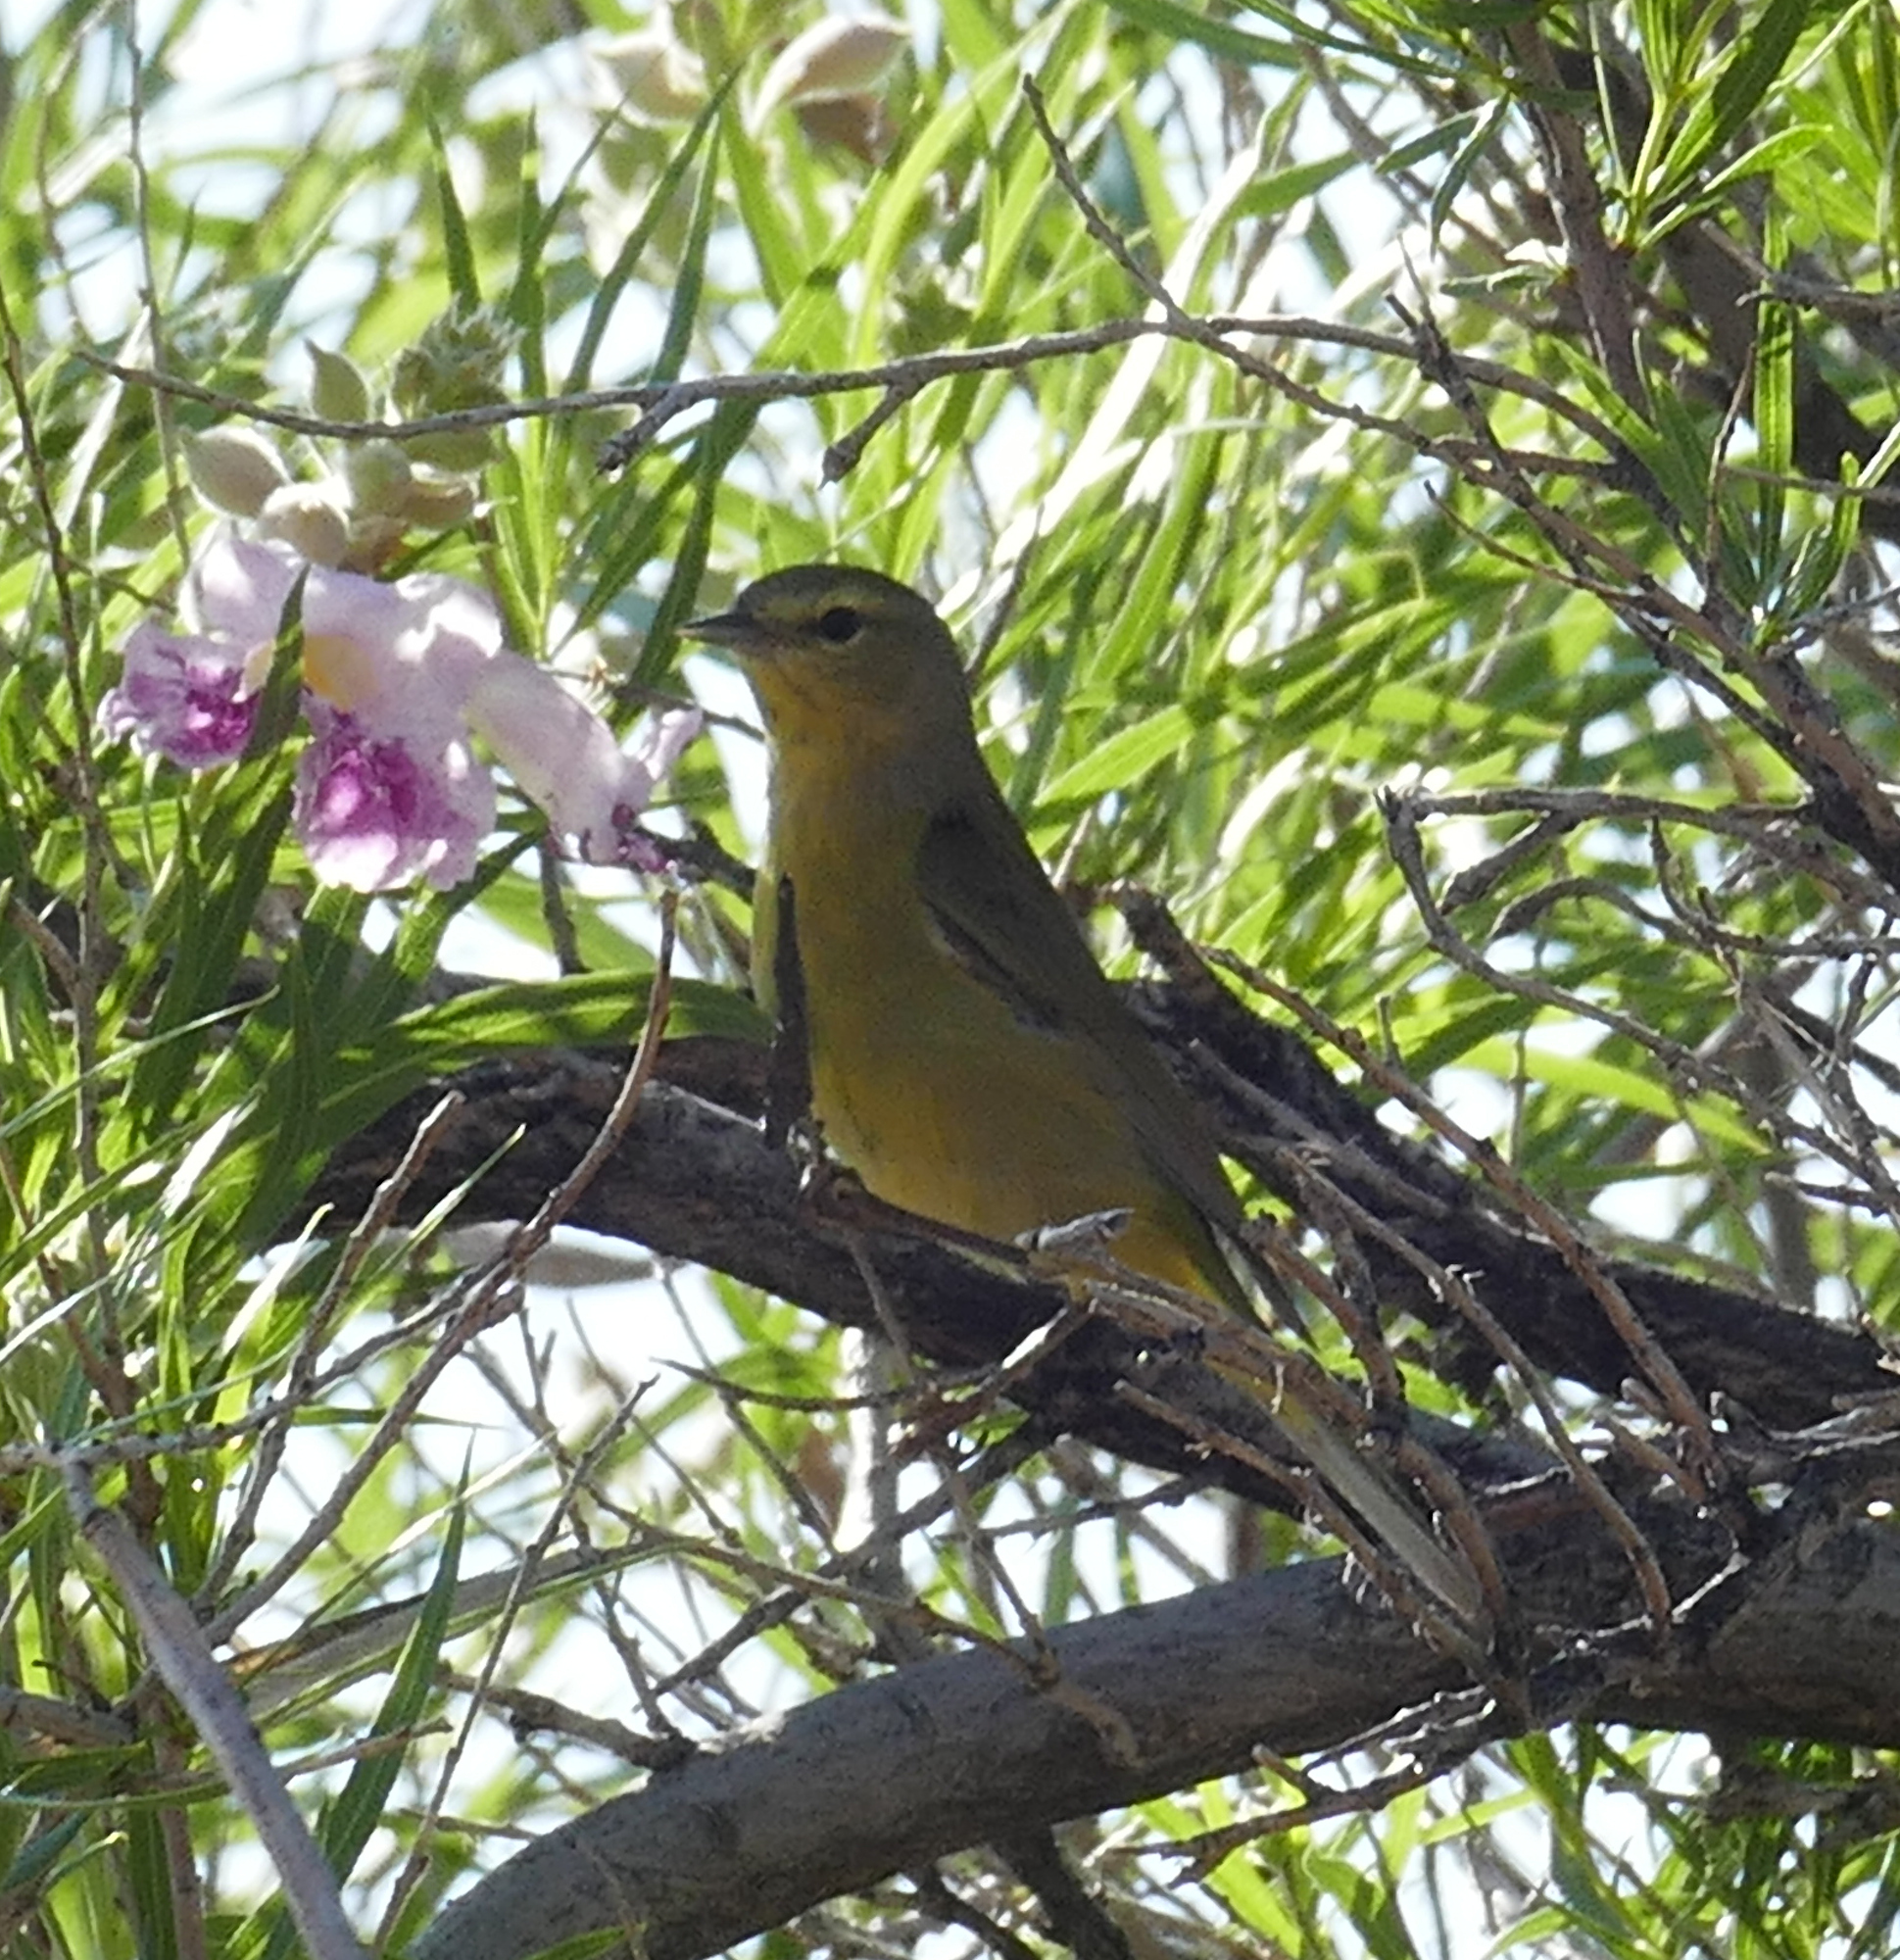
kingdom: Animalia
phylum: Chordata
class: Aves
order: Passeriformes
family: Parulidae
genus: Leiothlypis
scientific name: Leiothlypis celata
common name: Orange-crowned warbler
